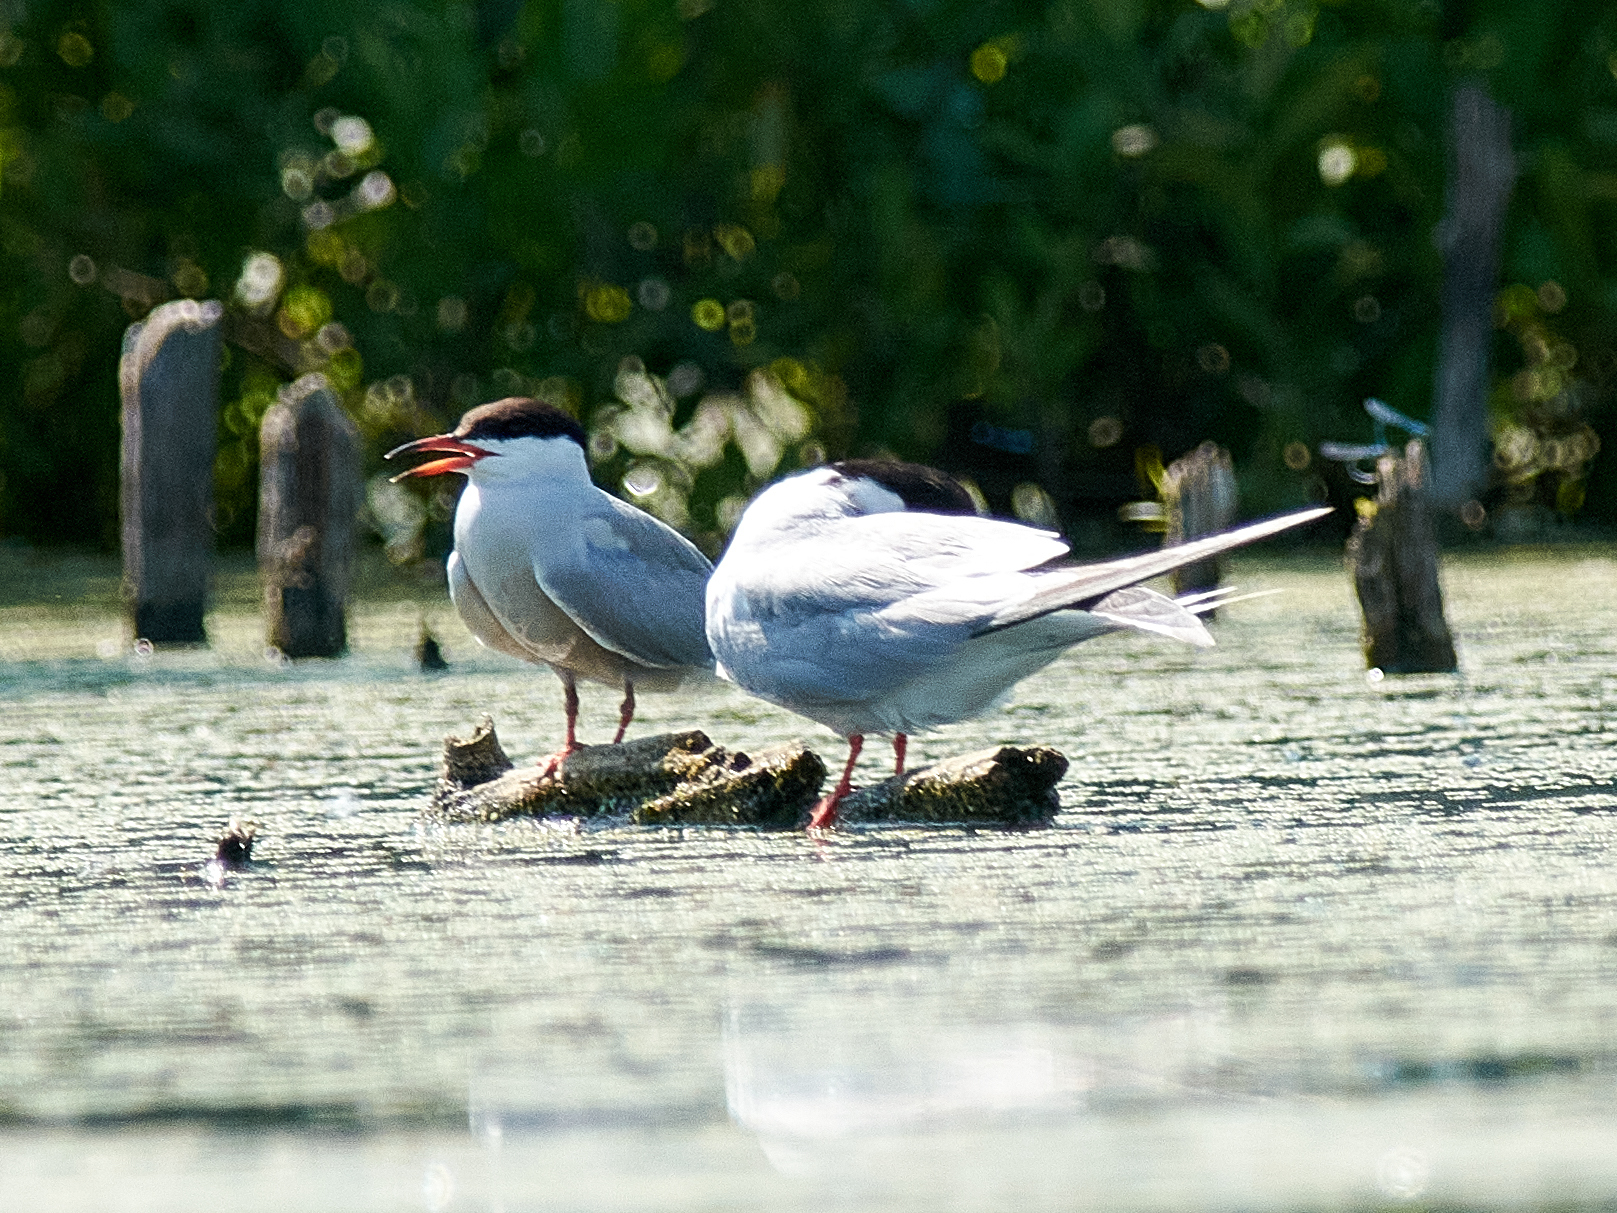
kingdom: Animalia
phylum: Chordata
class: Aves
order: Charadriiformes
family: Laridae
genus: Sterna
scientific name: Sterna hirundo
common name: Common tern
